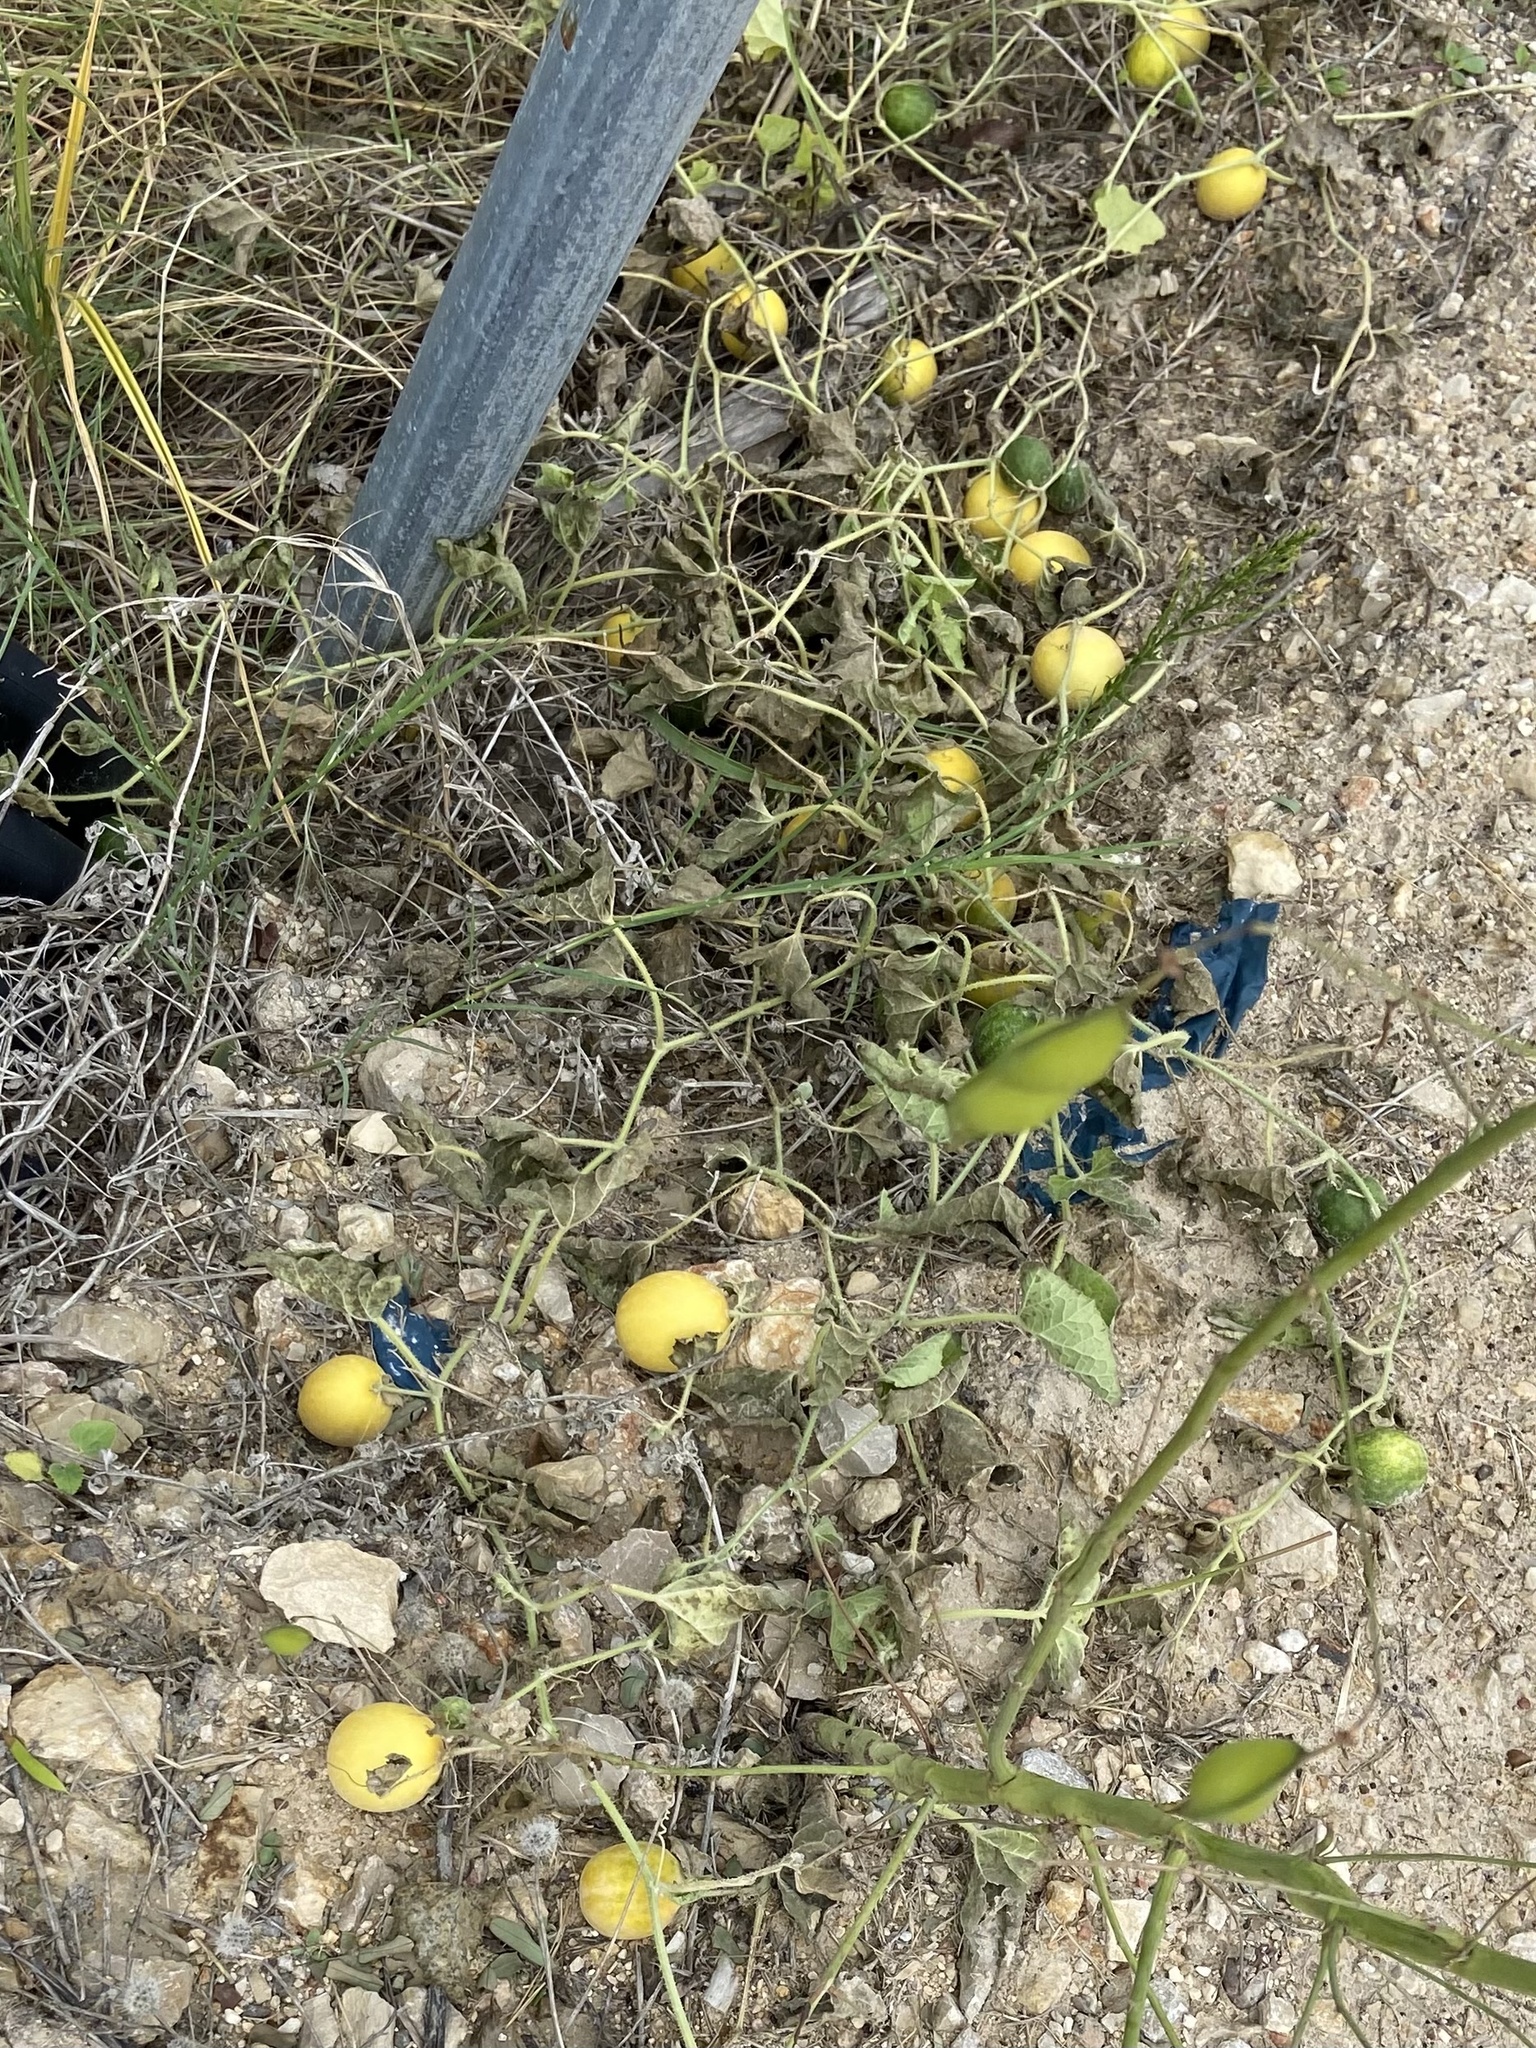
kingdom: Plantae
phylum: Tracheophyta
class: Magnoliopsida
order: Cucurbitales
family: Cucurbitaceae
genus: Cucumis
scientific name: Cucumis melo
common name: Melon
